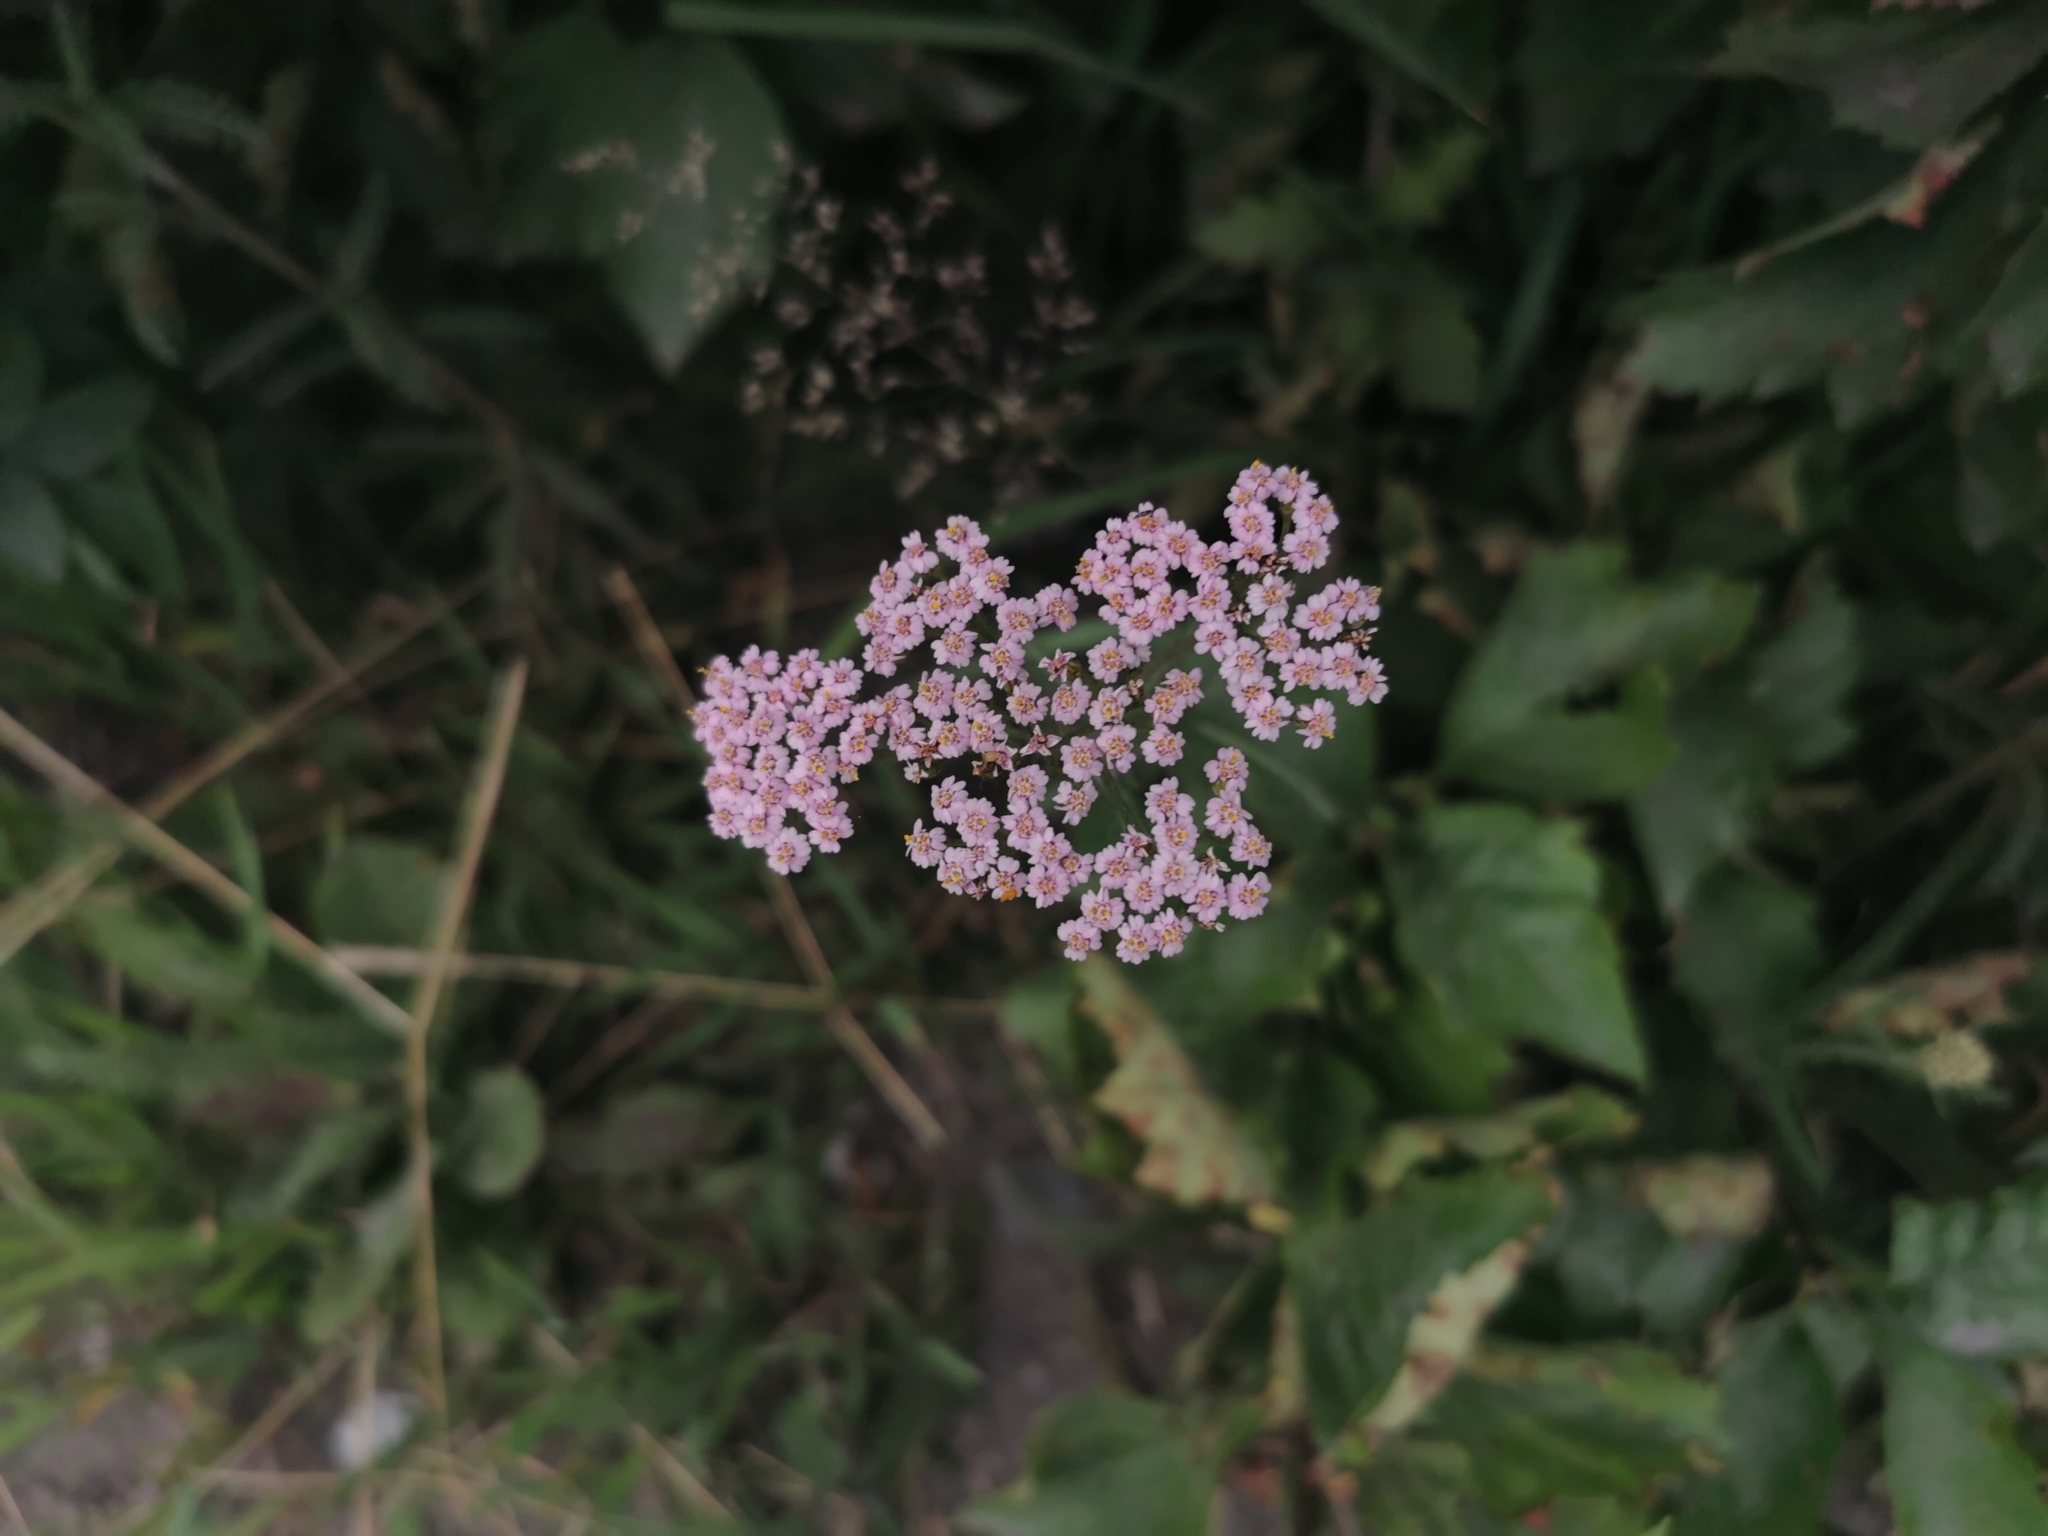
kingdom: Plantae
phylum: Tracheophyta
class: Magnoliopsida
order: Asterales
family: Asteraceae
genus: Achillea
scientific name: Achillea millefolium
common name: Yarrow
